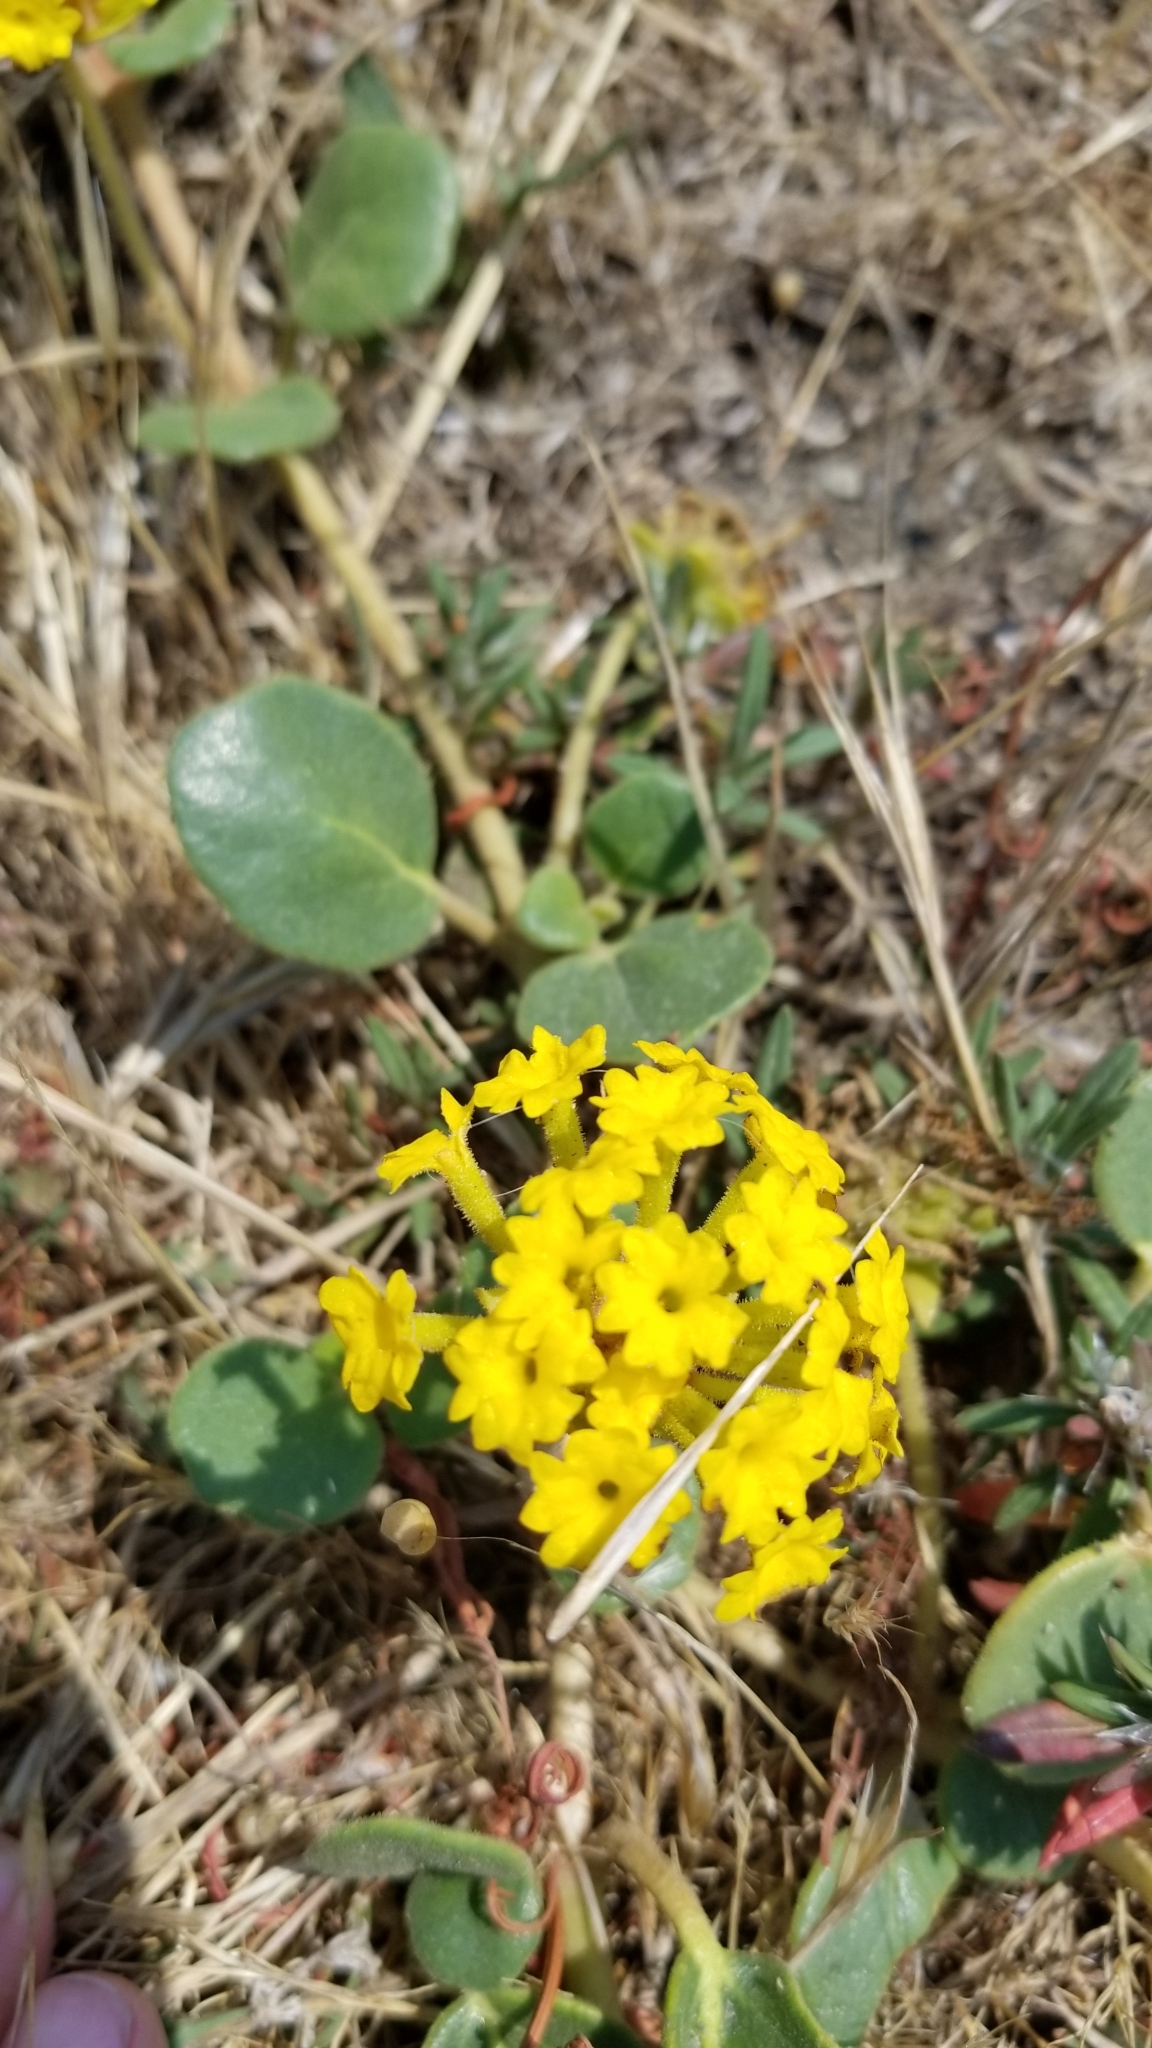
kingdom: Plantae
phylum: Tracheophyta
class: Magnoliopsida
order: Caryophyllales
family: Nyctaginaceae
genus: Abronia
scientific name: Abronia latifolia
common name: Yellow sand-verbena
